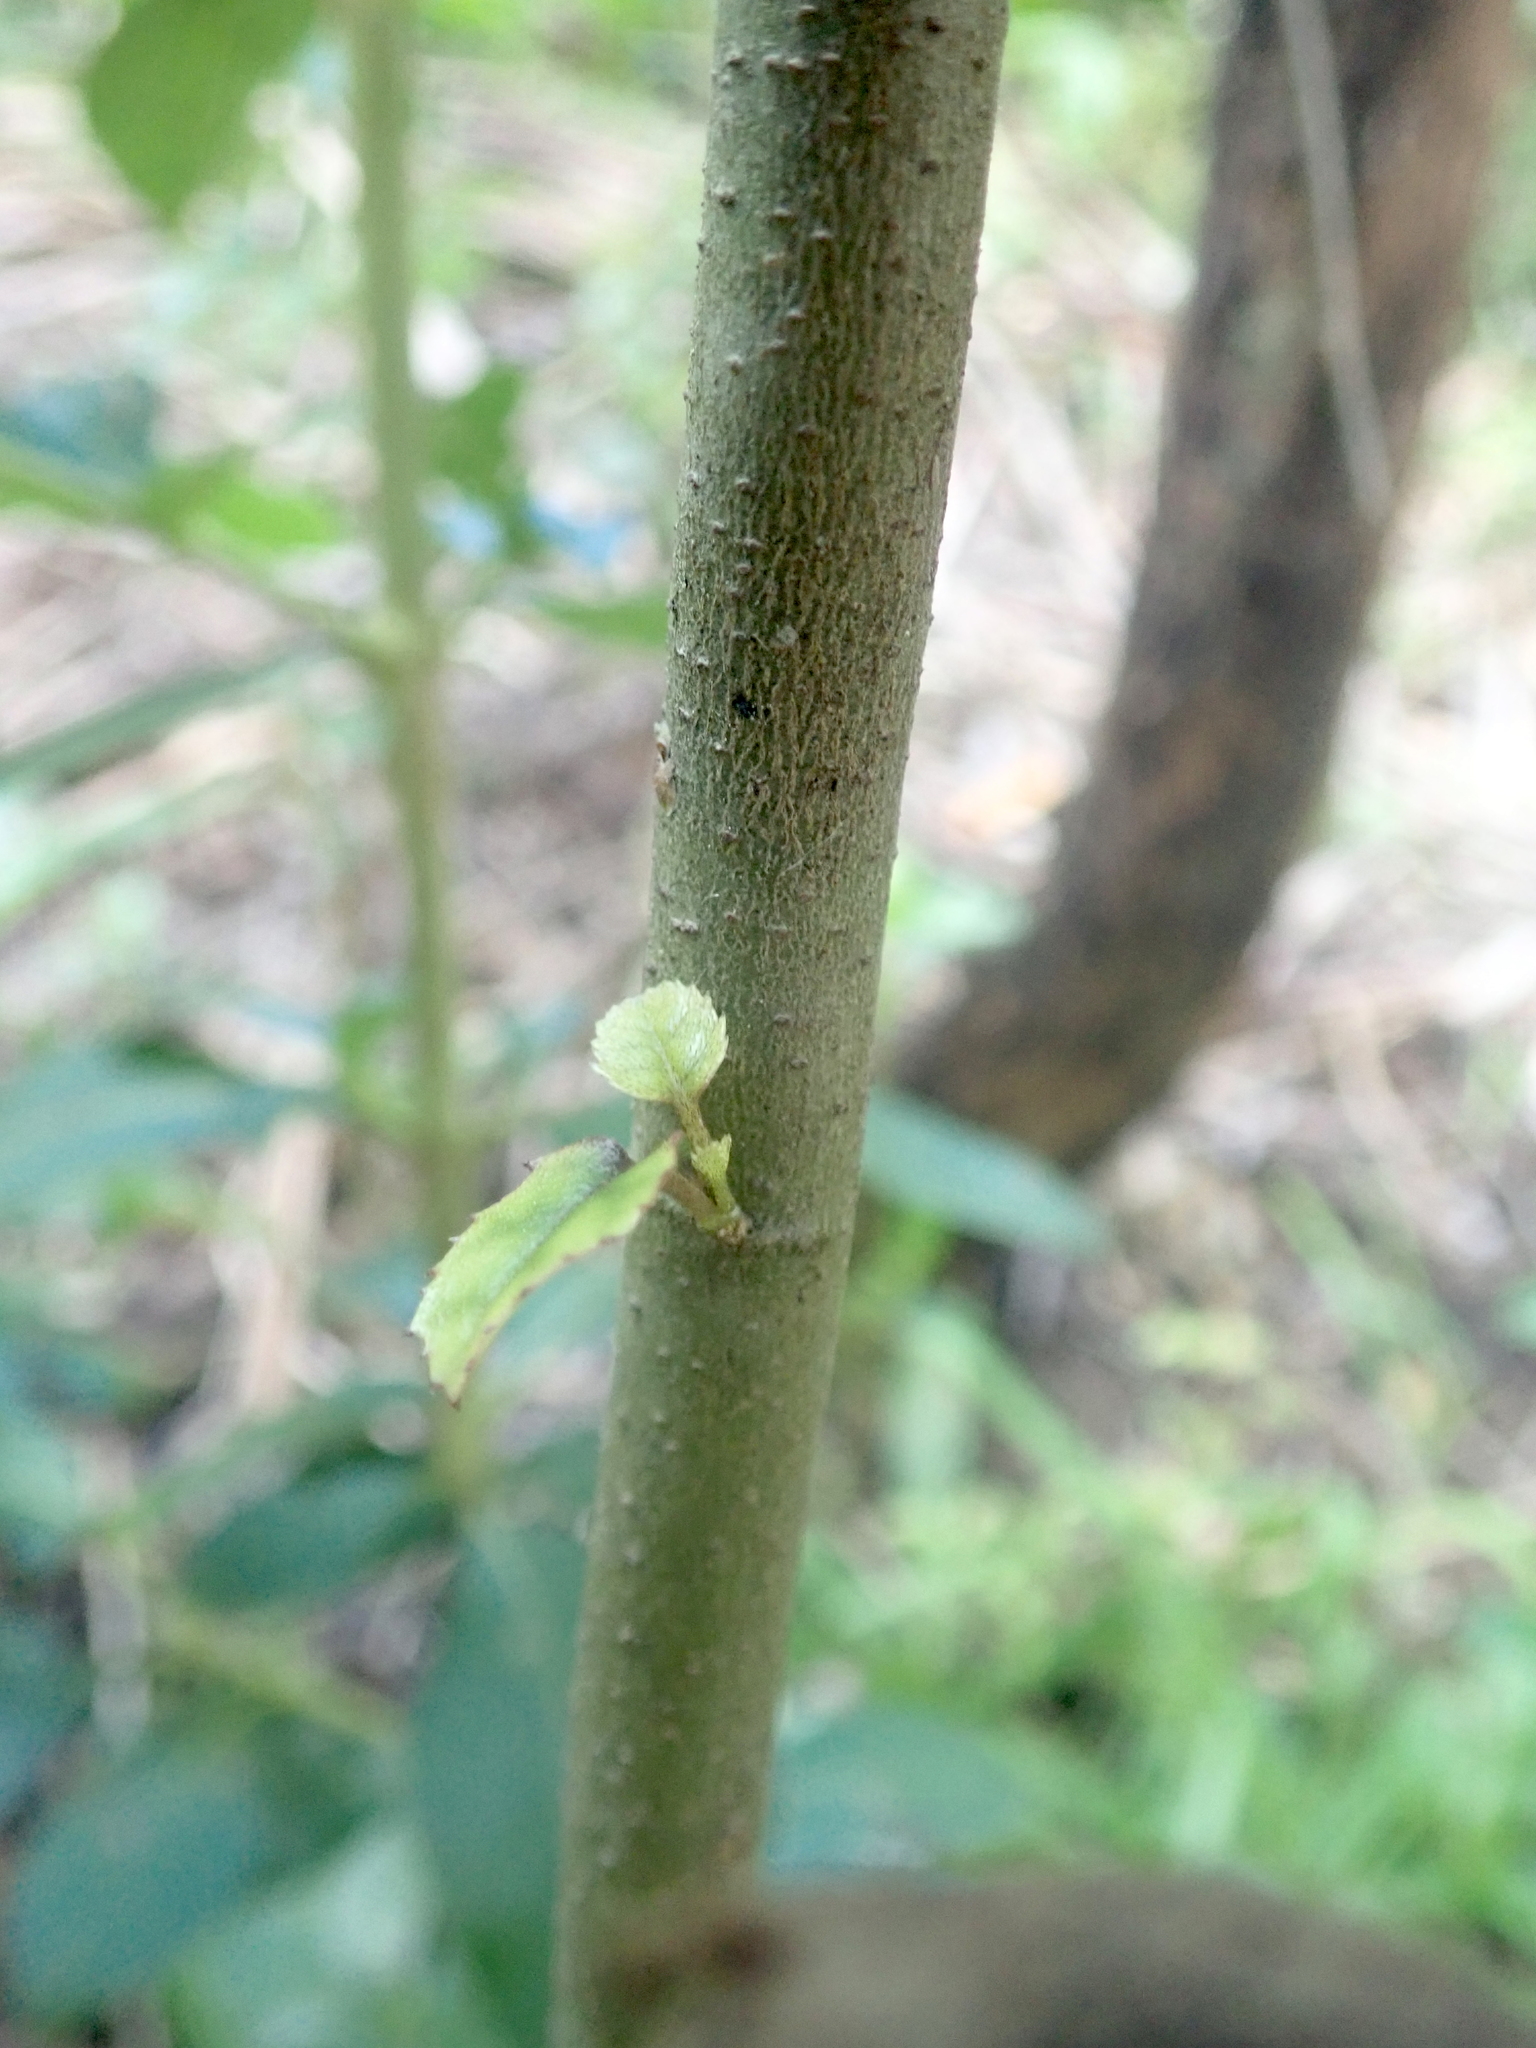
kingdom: Plantae
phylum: Tracheophyta
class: Magnoliopsida
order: Asterales
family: Rousseaceae
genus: Carpodetus
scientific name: Carpodetus serratus
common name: White mapau
